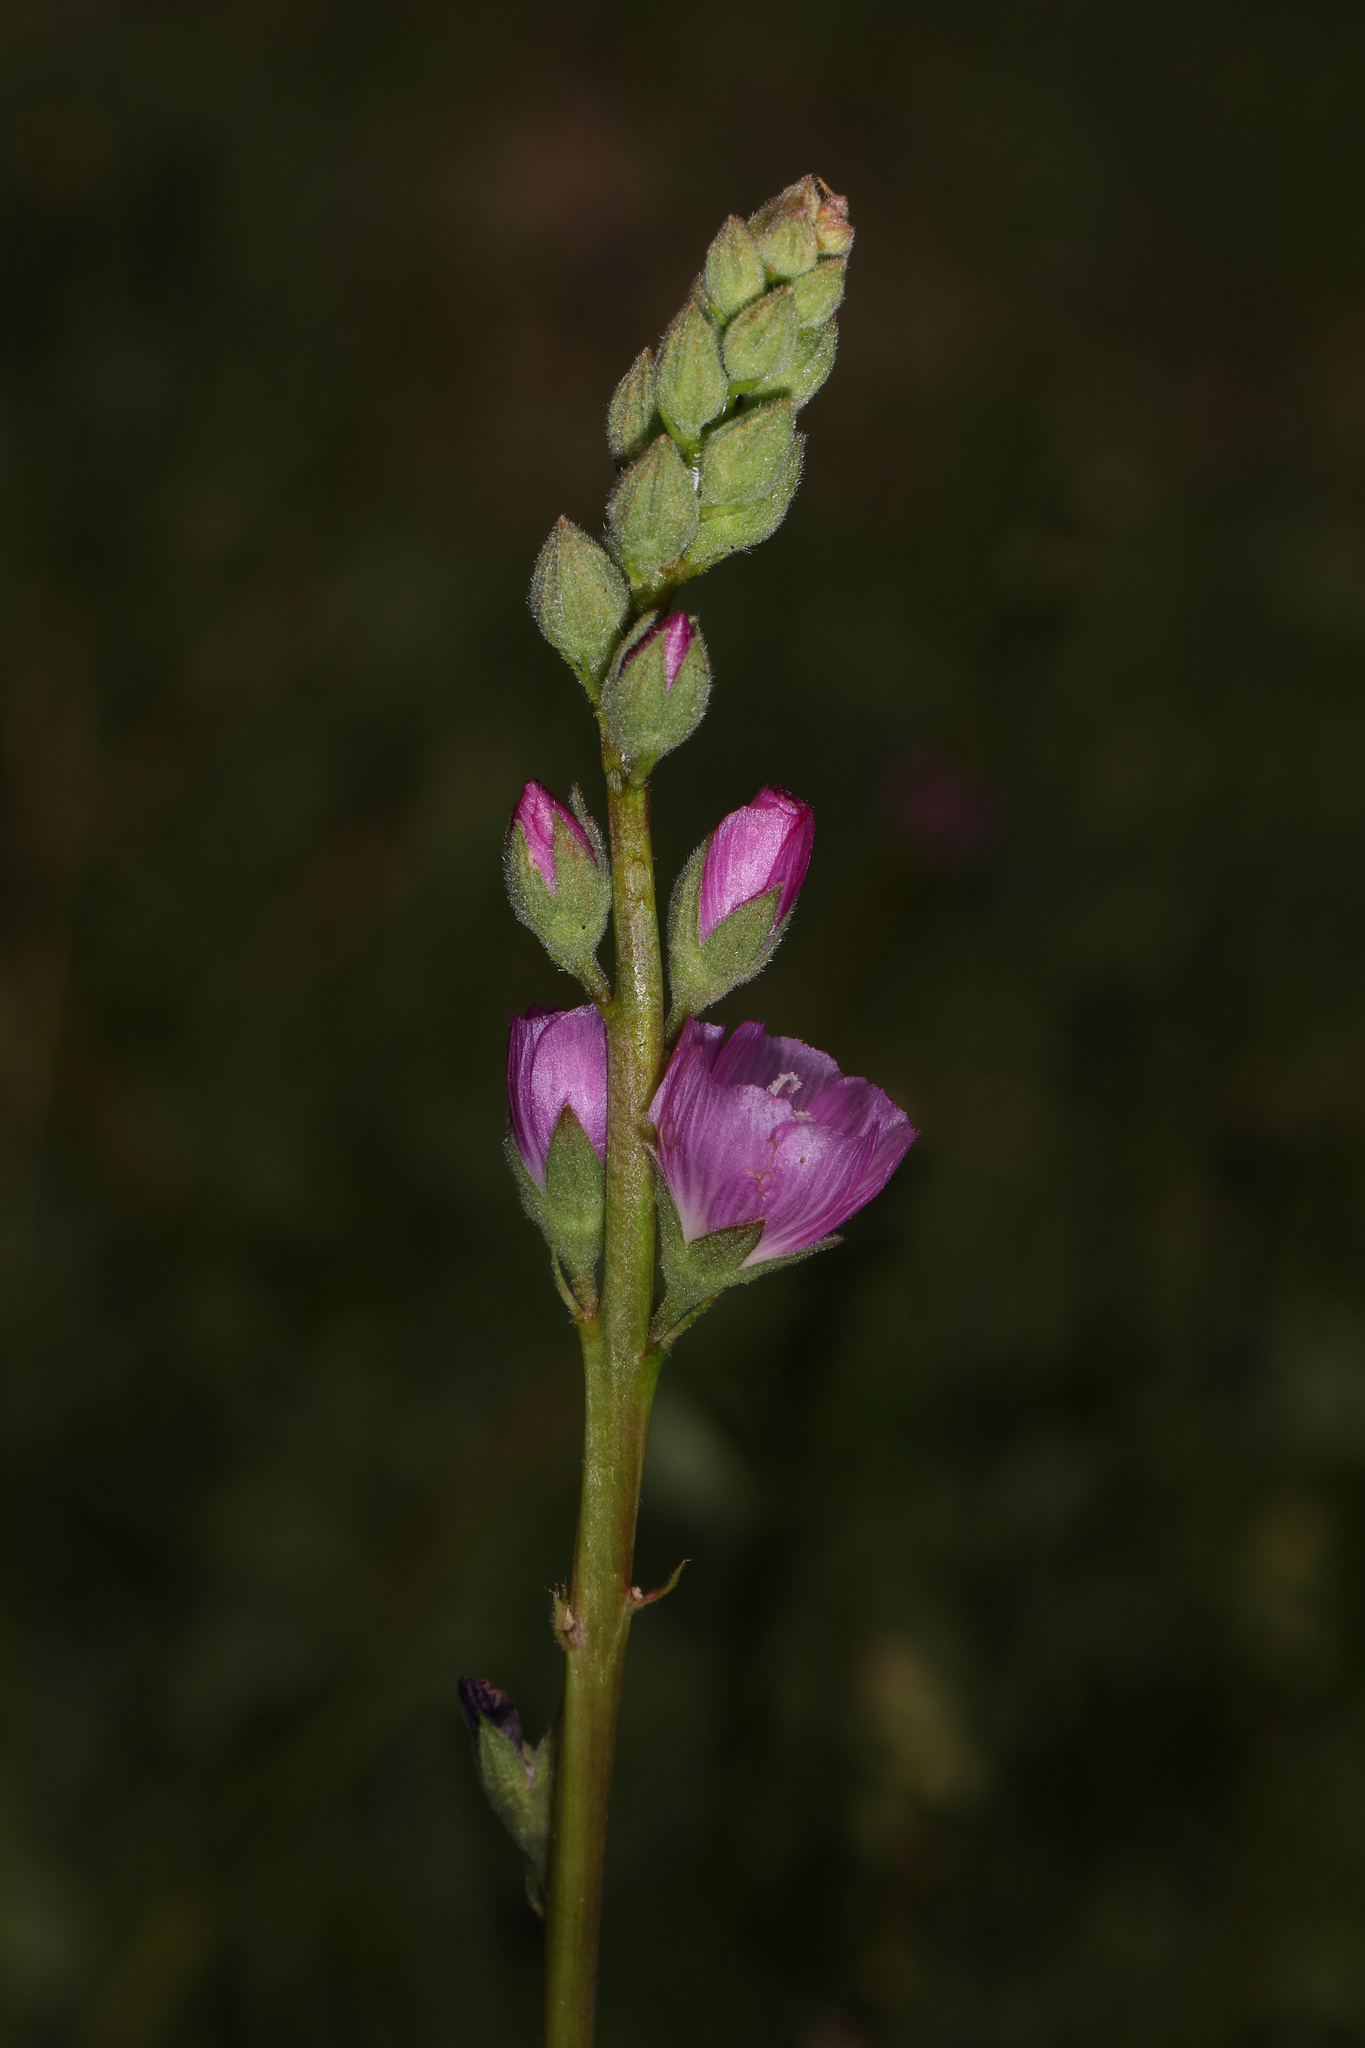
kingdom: Plantae
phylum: Tracheophyta
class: Magnoliopsida
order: Malvales
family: Malvaceae
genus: Sidalcea
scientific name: Sidalcea sparsifolia
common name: Southern checkerbloom
